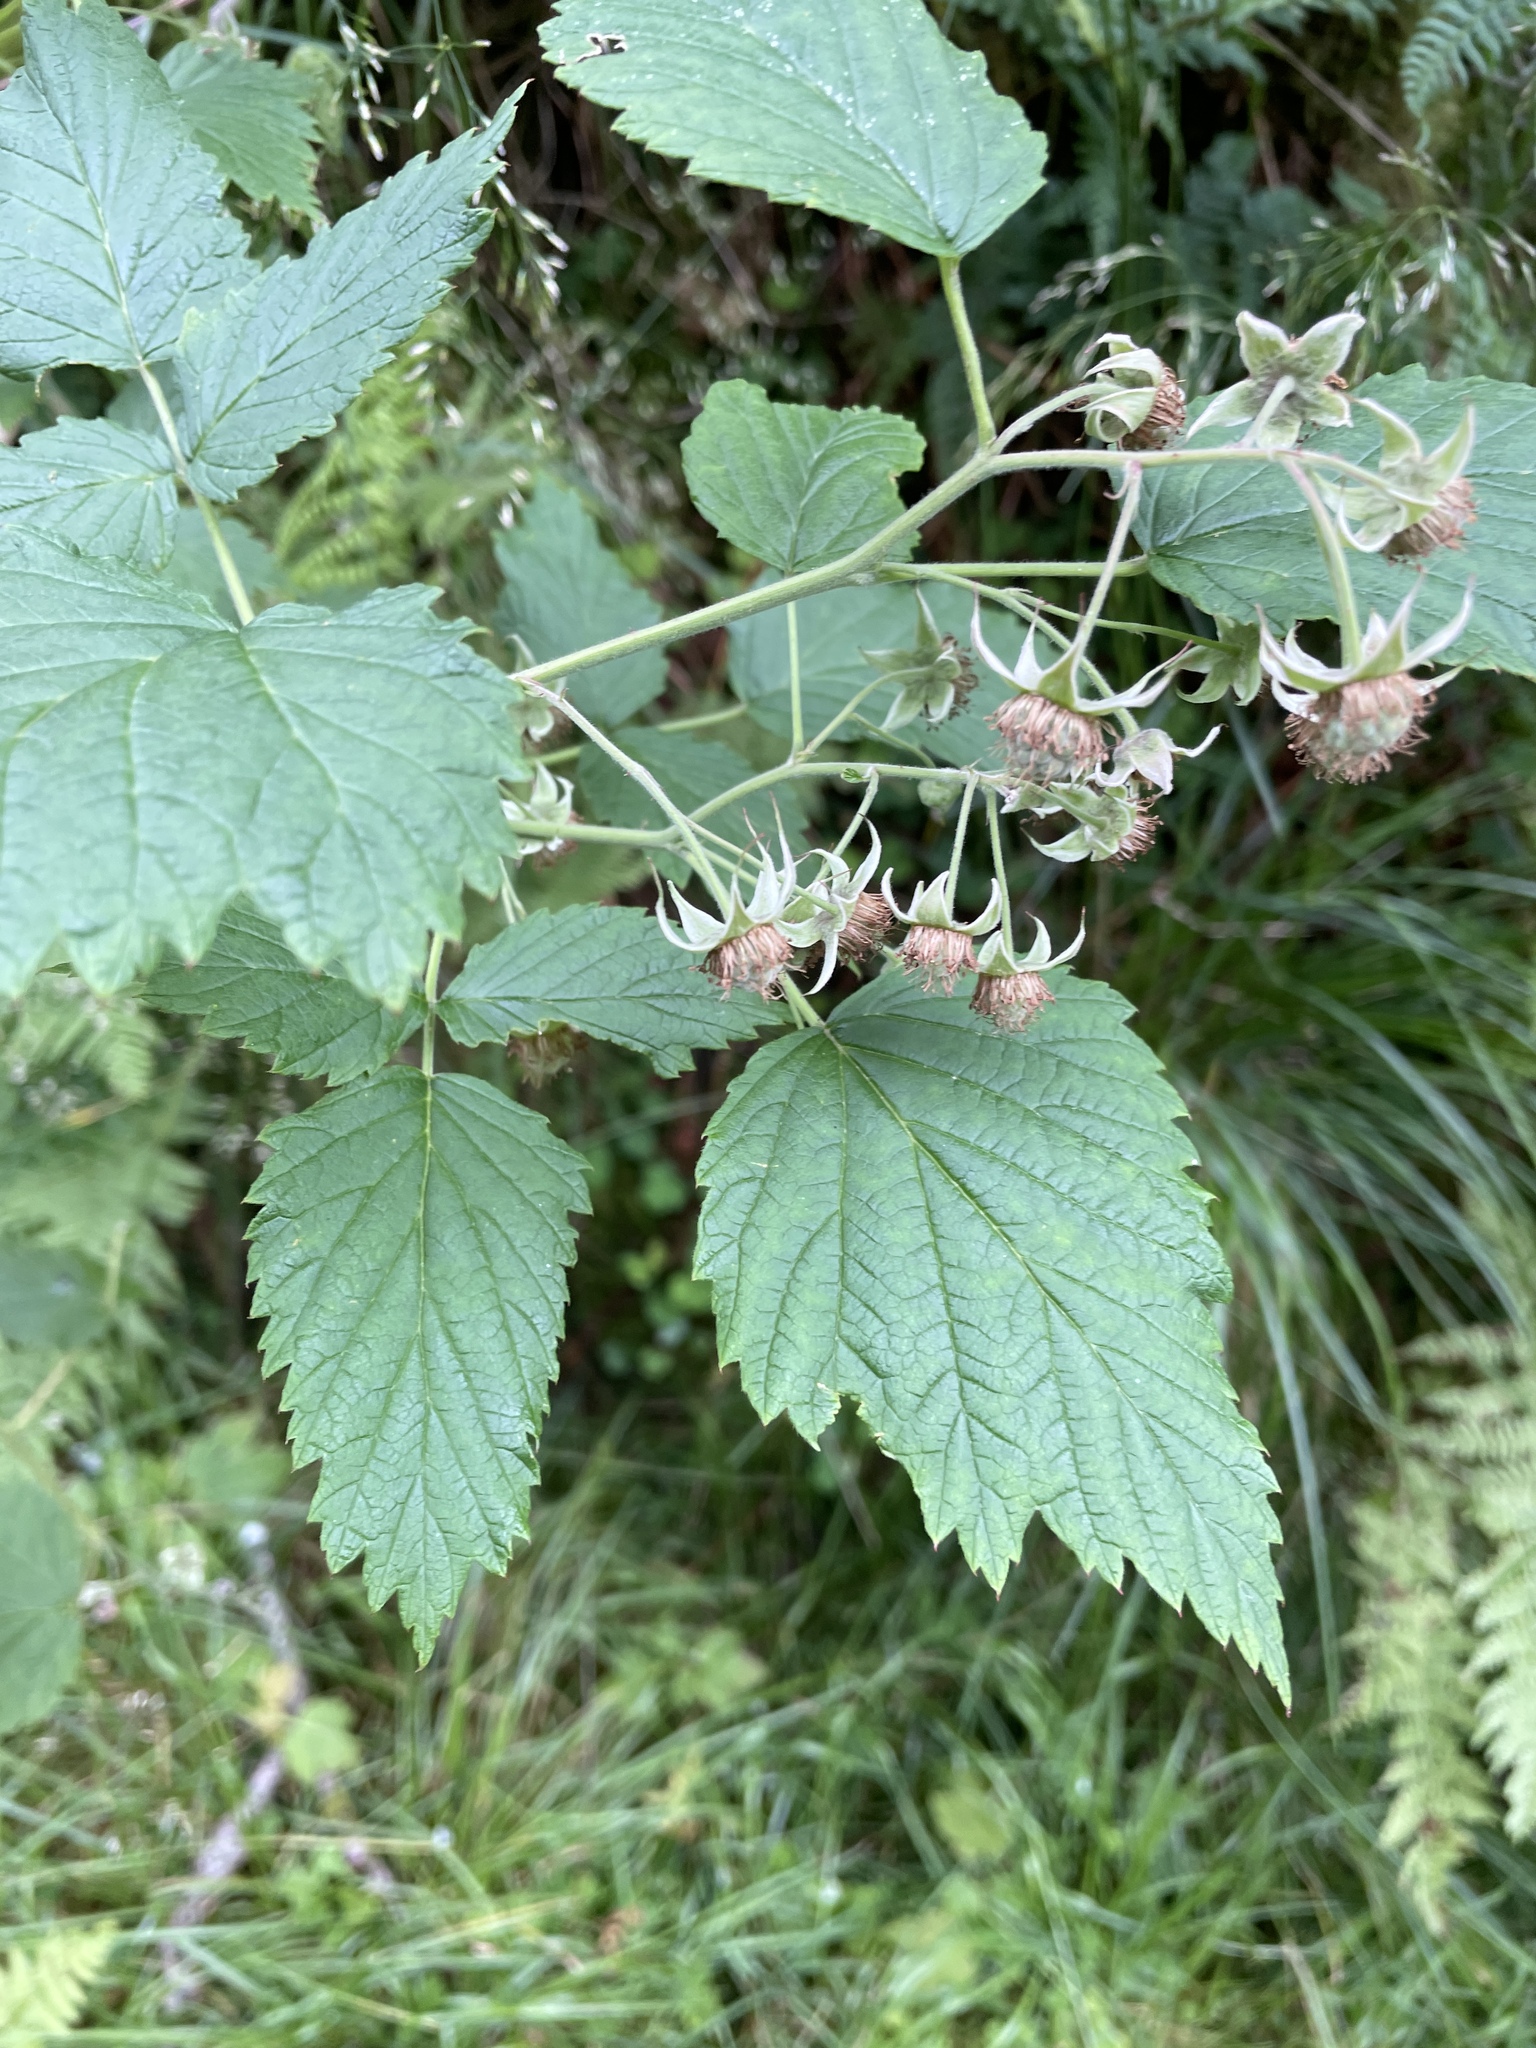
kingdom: Plantae
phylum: Tracheophyta
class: Magnoliopsida
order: Rosales
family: Rosaceae
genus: Rubus
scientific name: Rubus idaeus
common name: Raspberry
